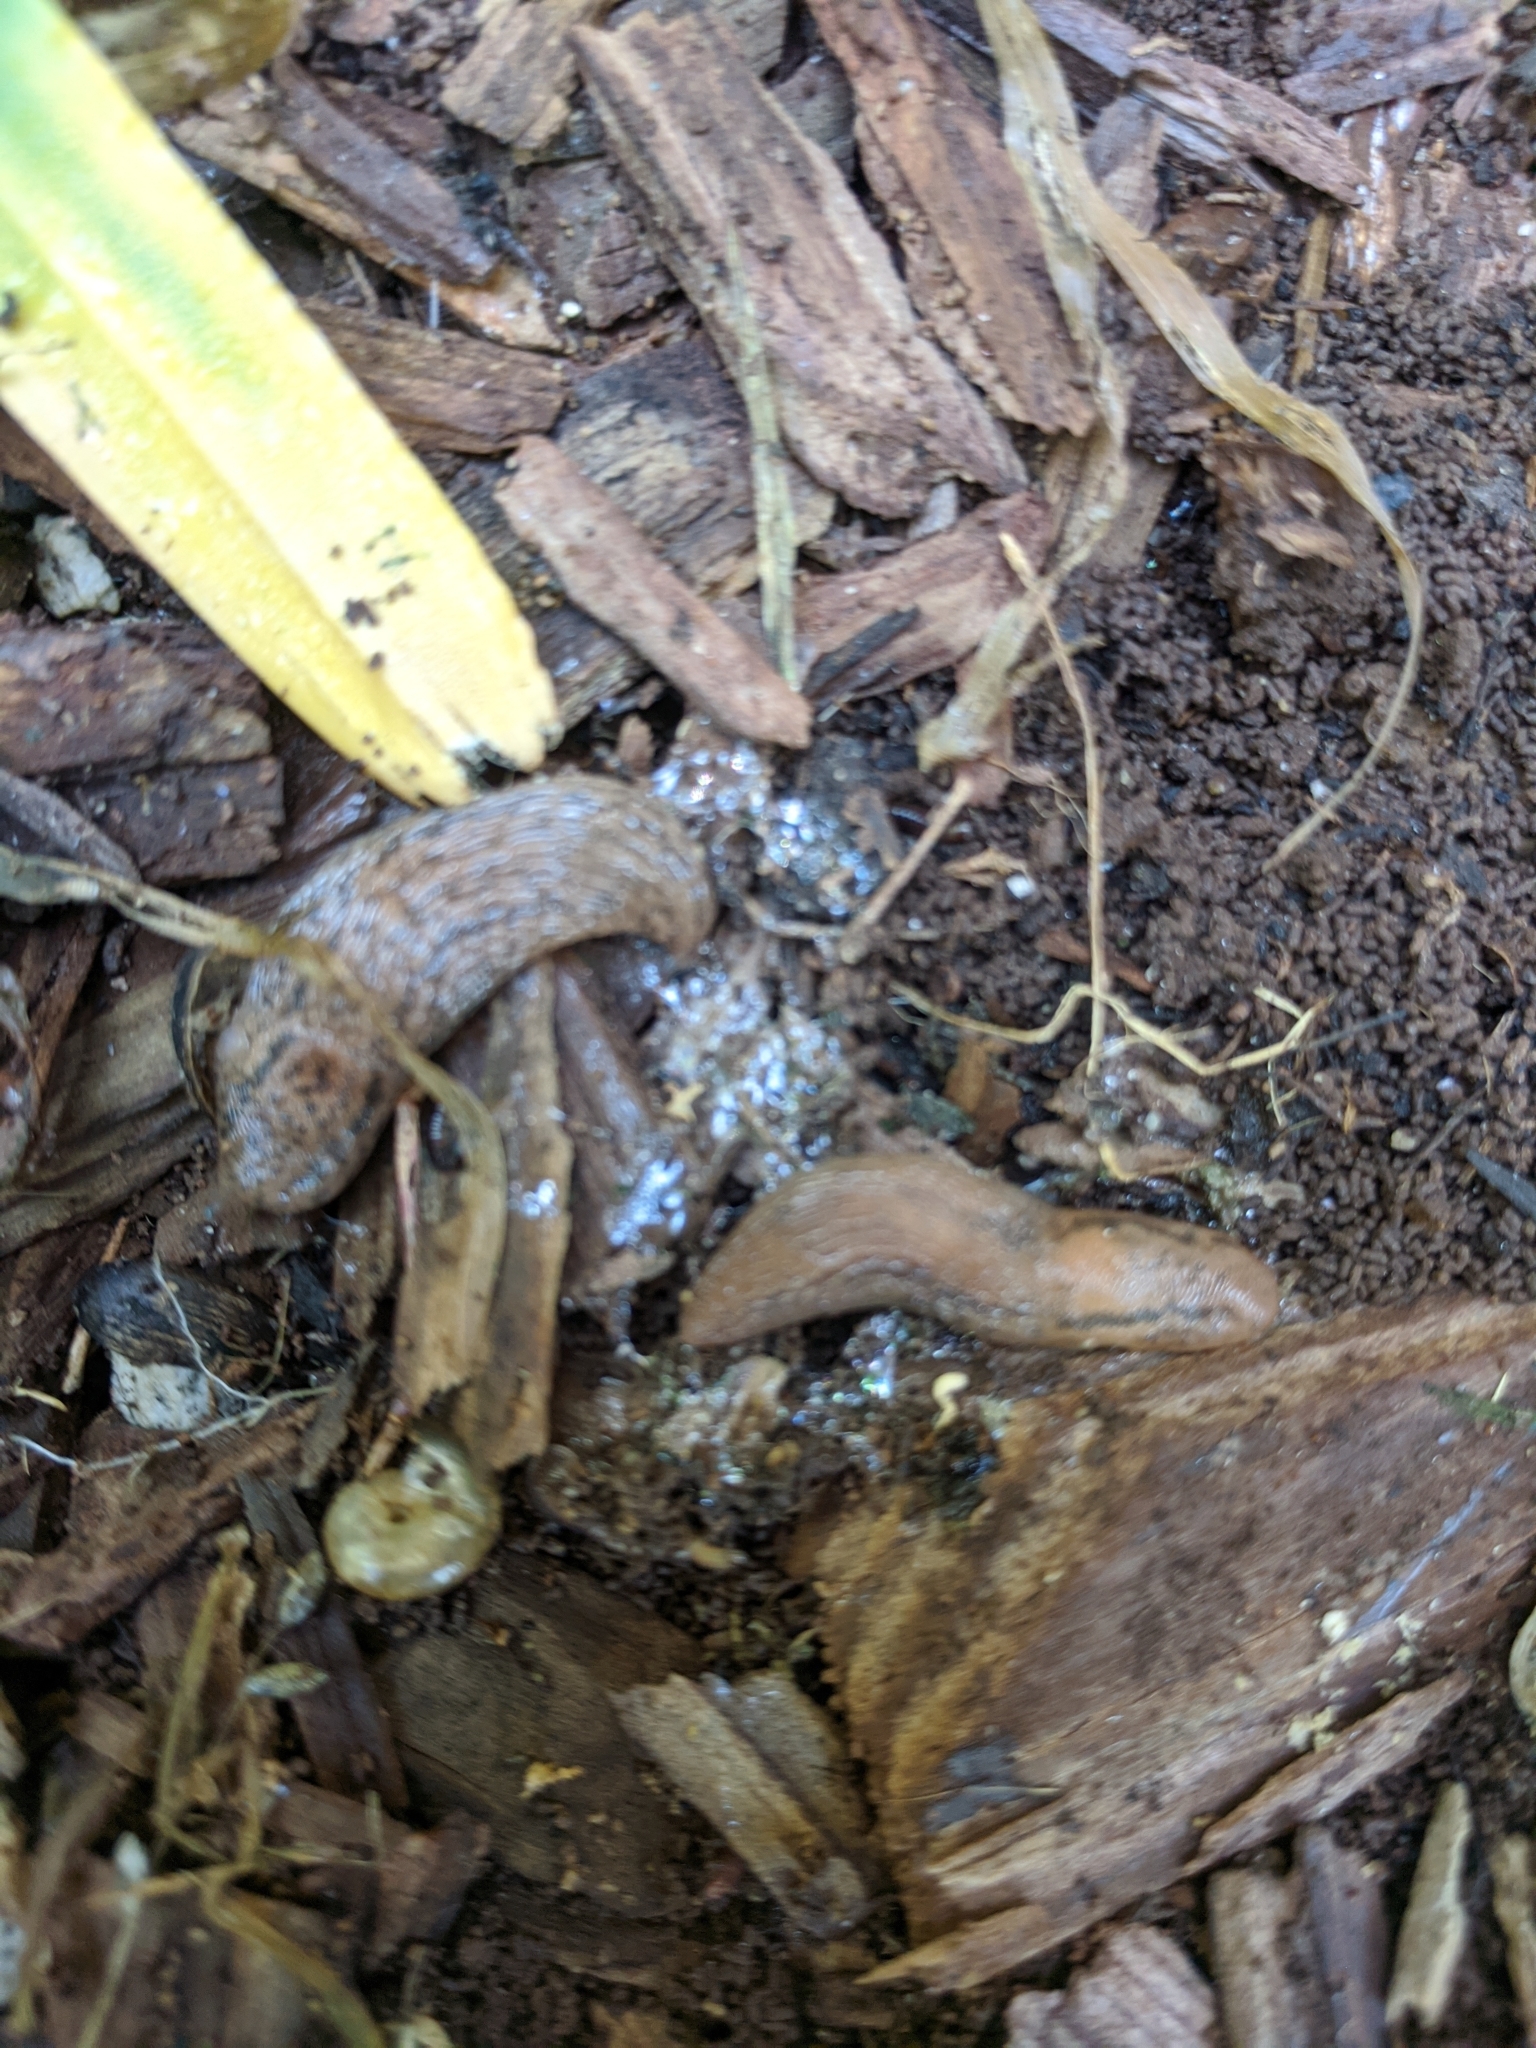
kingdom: Animalia
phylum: Mollusca
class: Gastropoda
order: Stylommatophora
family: Limacidae
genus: Ambigolimax
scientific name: Ambigolimax
